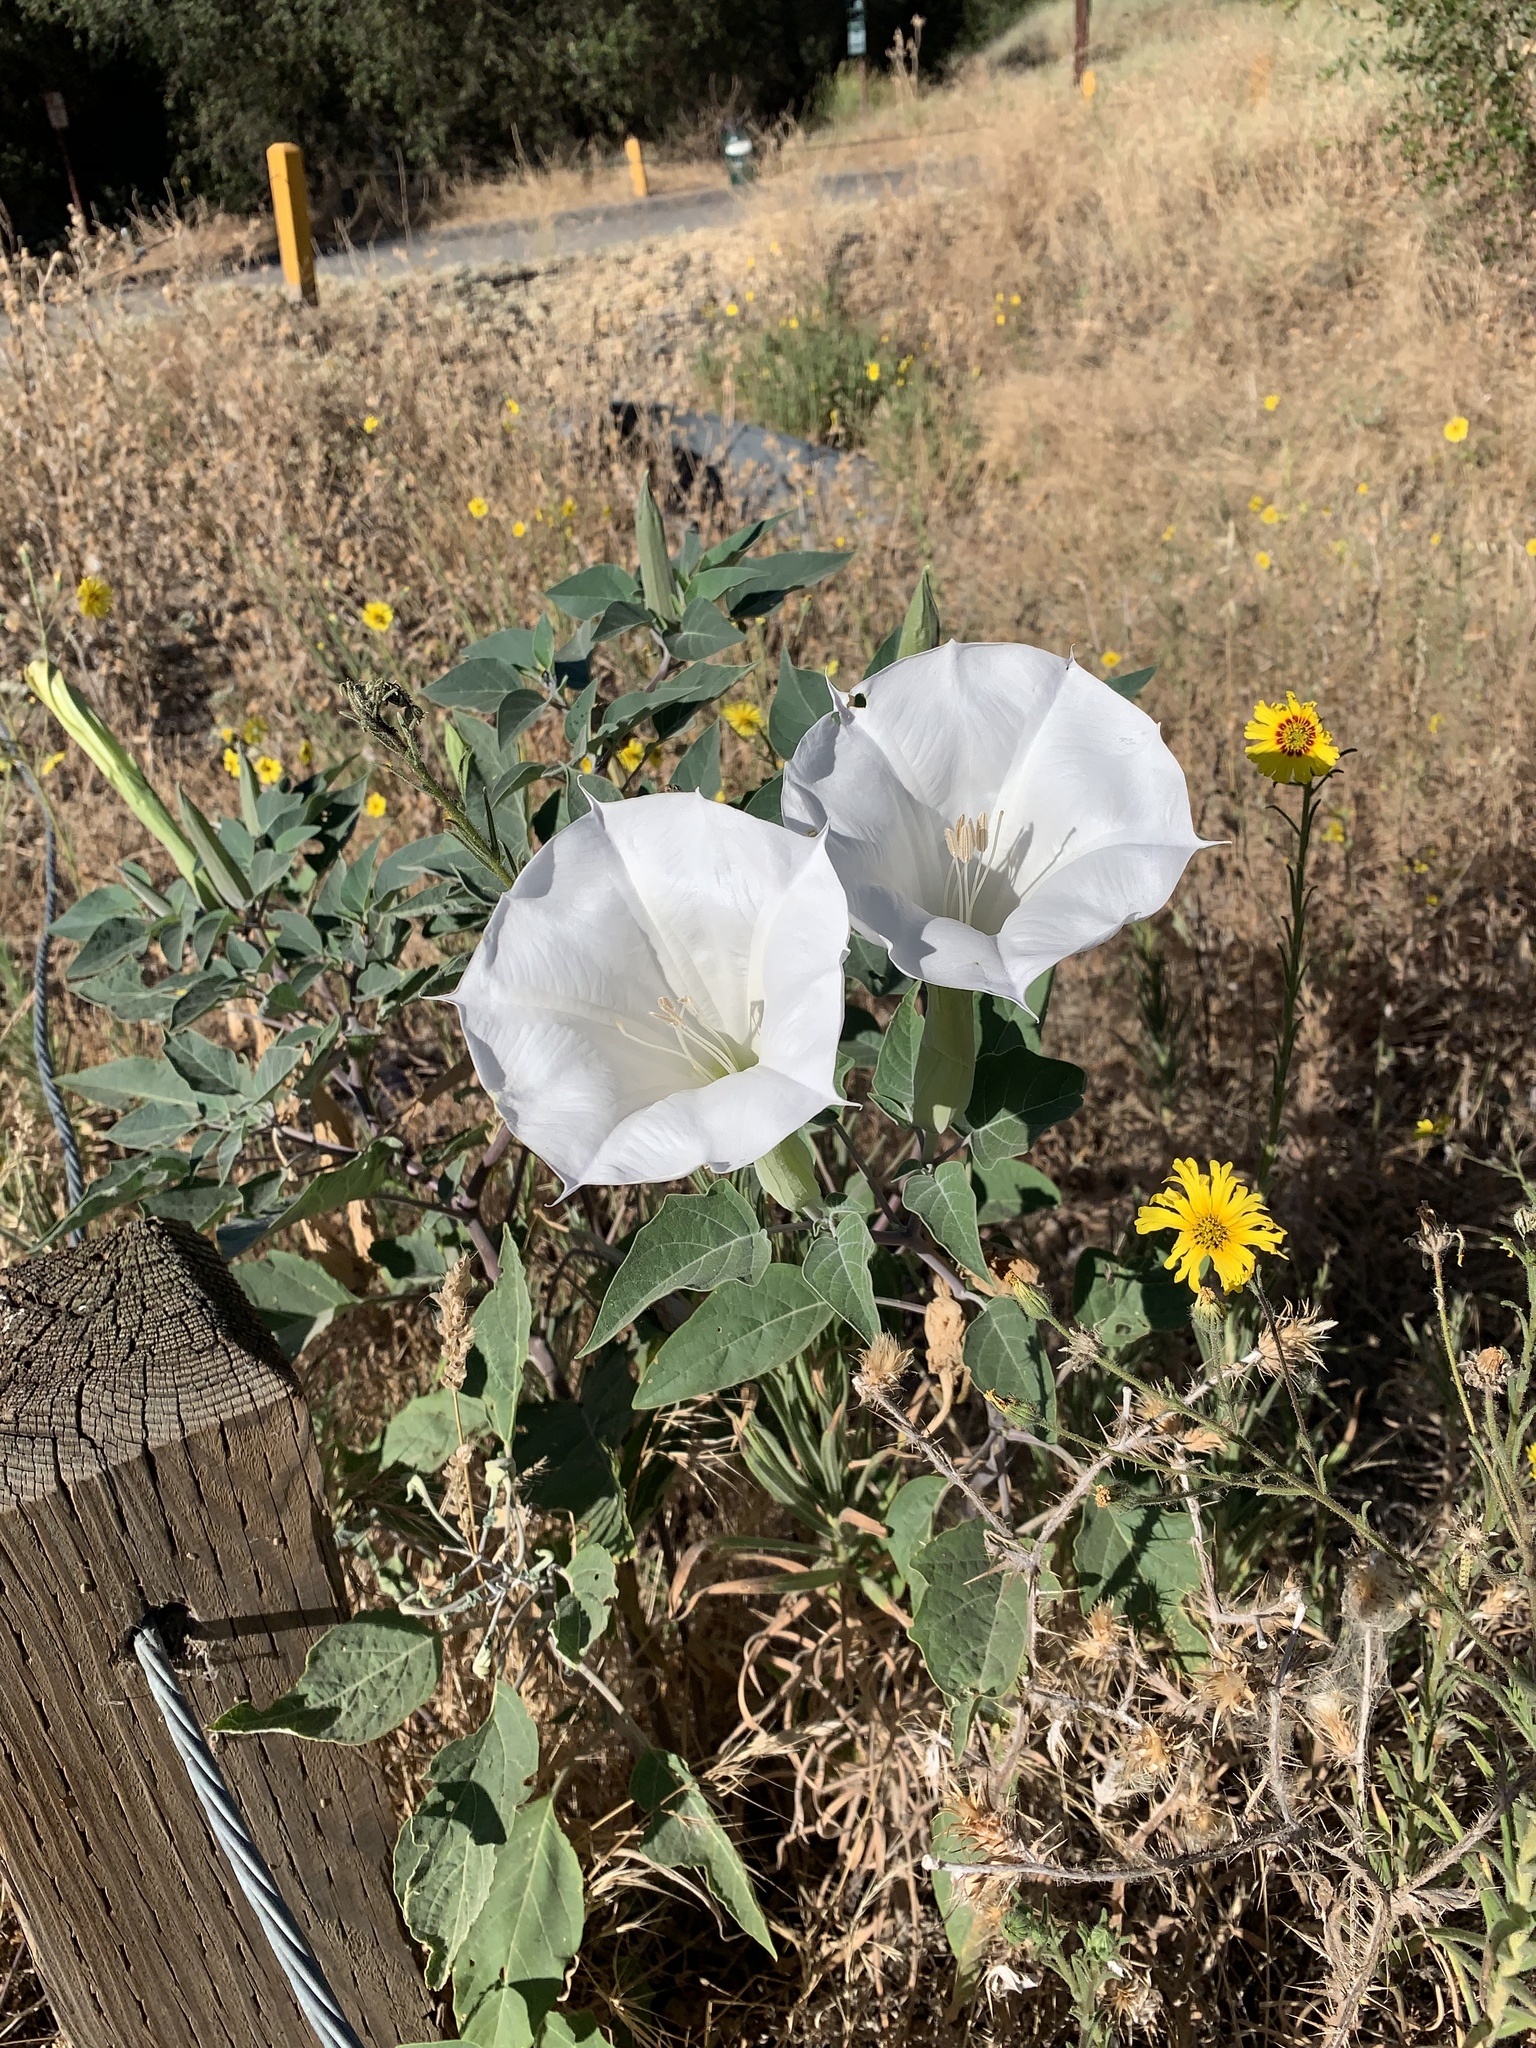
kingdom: Plantae
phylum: Tracheophyta
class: Magnoliopsida
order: Solanales
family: Solanaceae
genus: Datura
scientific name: Datura wrightii
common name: Sacred thorn-apple
